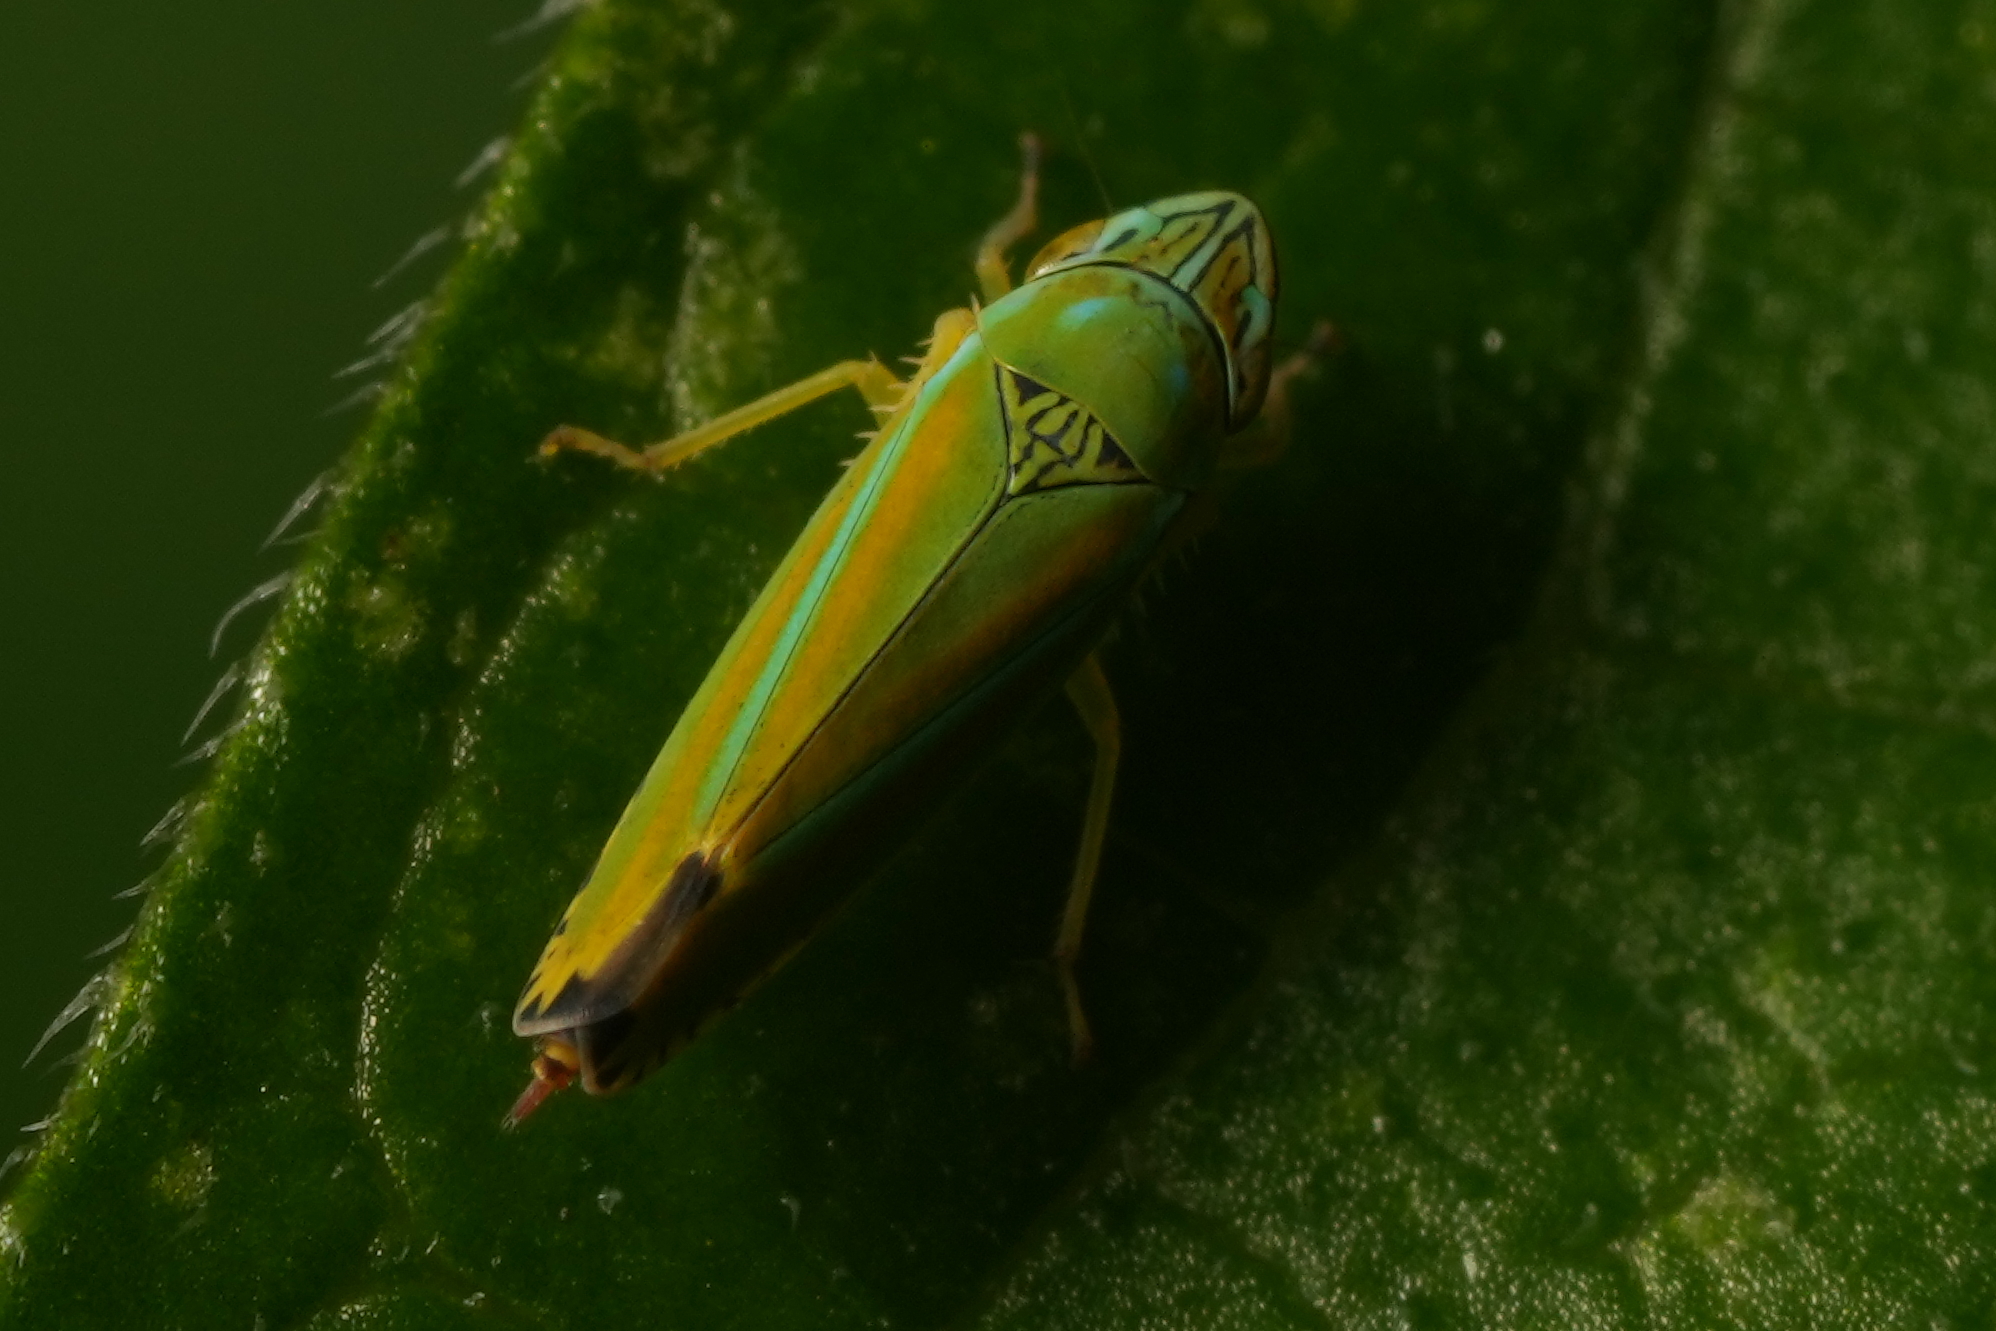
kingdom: Animalia
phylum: Arthropoda
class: Insecta
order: Hemiptera
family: Cicadellidae
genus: Graphocephala
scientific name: Graphocephala versuta
